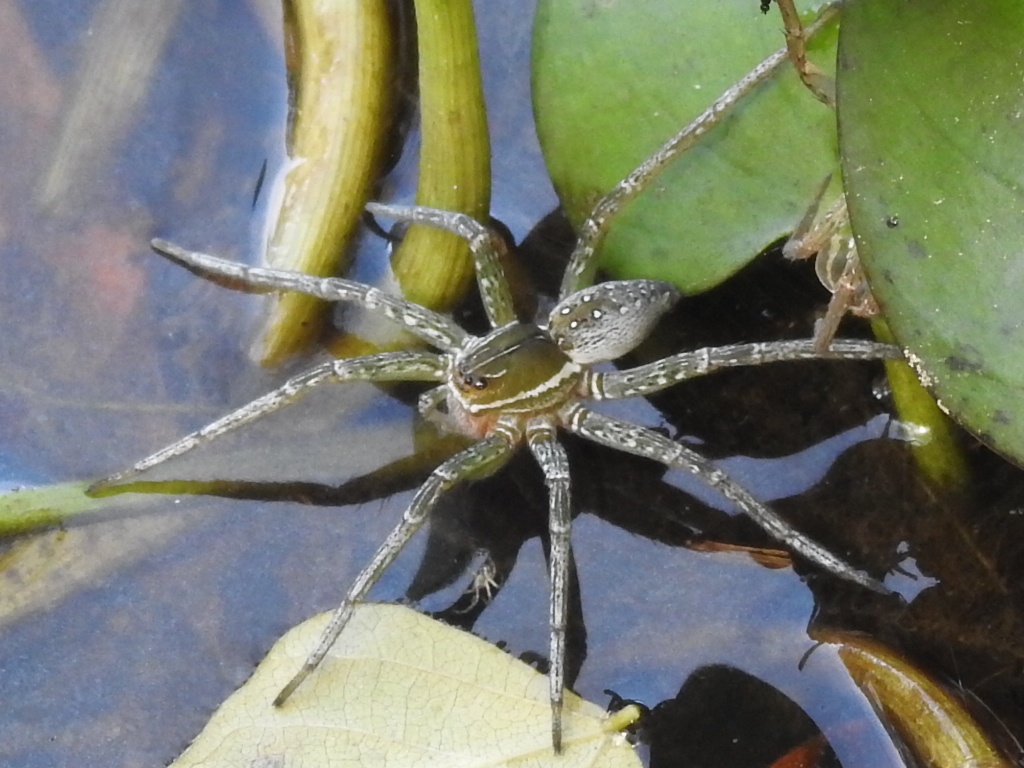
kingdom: Animalia
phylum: Arthropoda
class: Arachnida
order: Araneae
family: Pisauridae
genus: Dolomedes
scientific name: Dolomedes triton
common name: Six-spotted fishing spider
